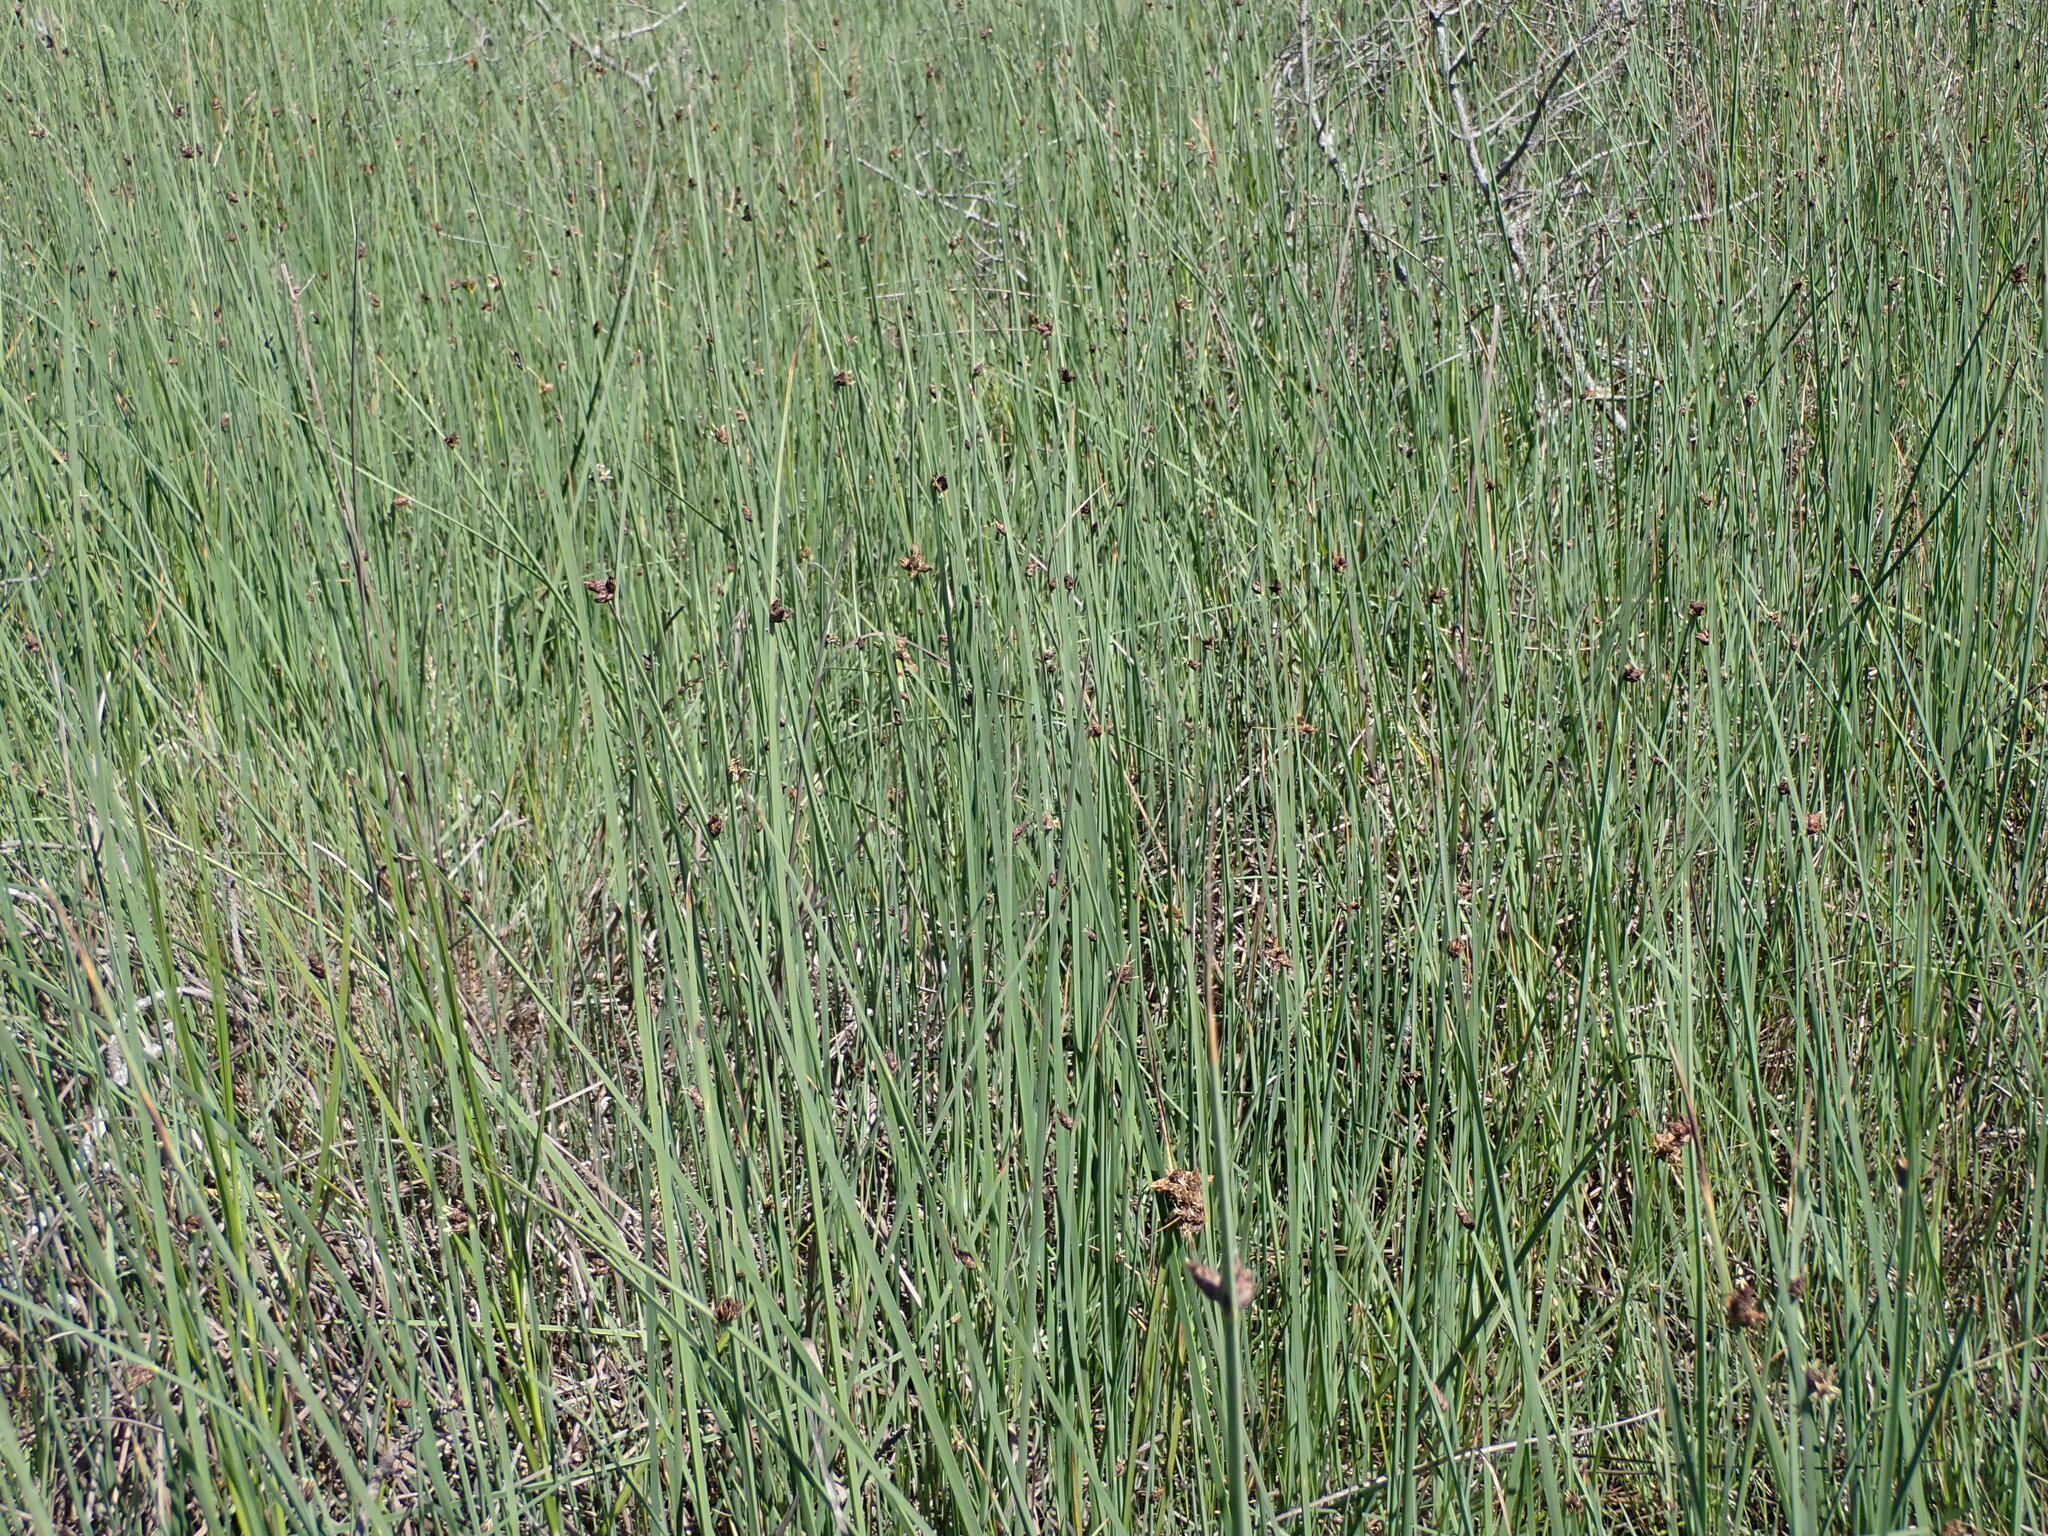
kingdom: Plantae
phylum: Tracheophyta
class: Liliopsida
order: Poales
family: Cyperaceae
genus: Schoenoplectus
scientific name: Schoenoplectus pungens
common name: Sharp club-rush
